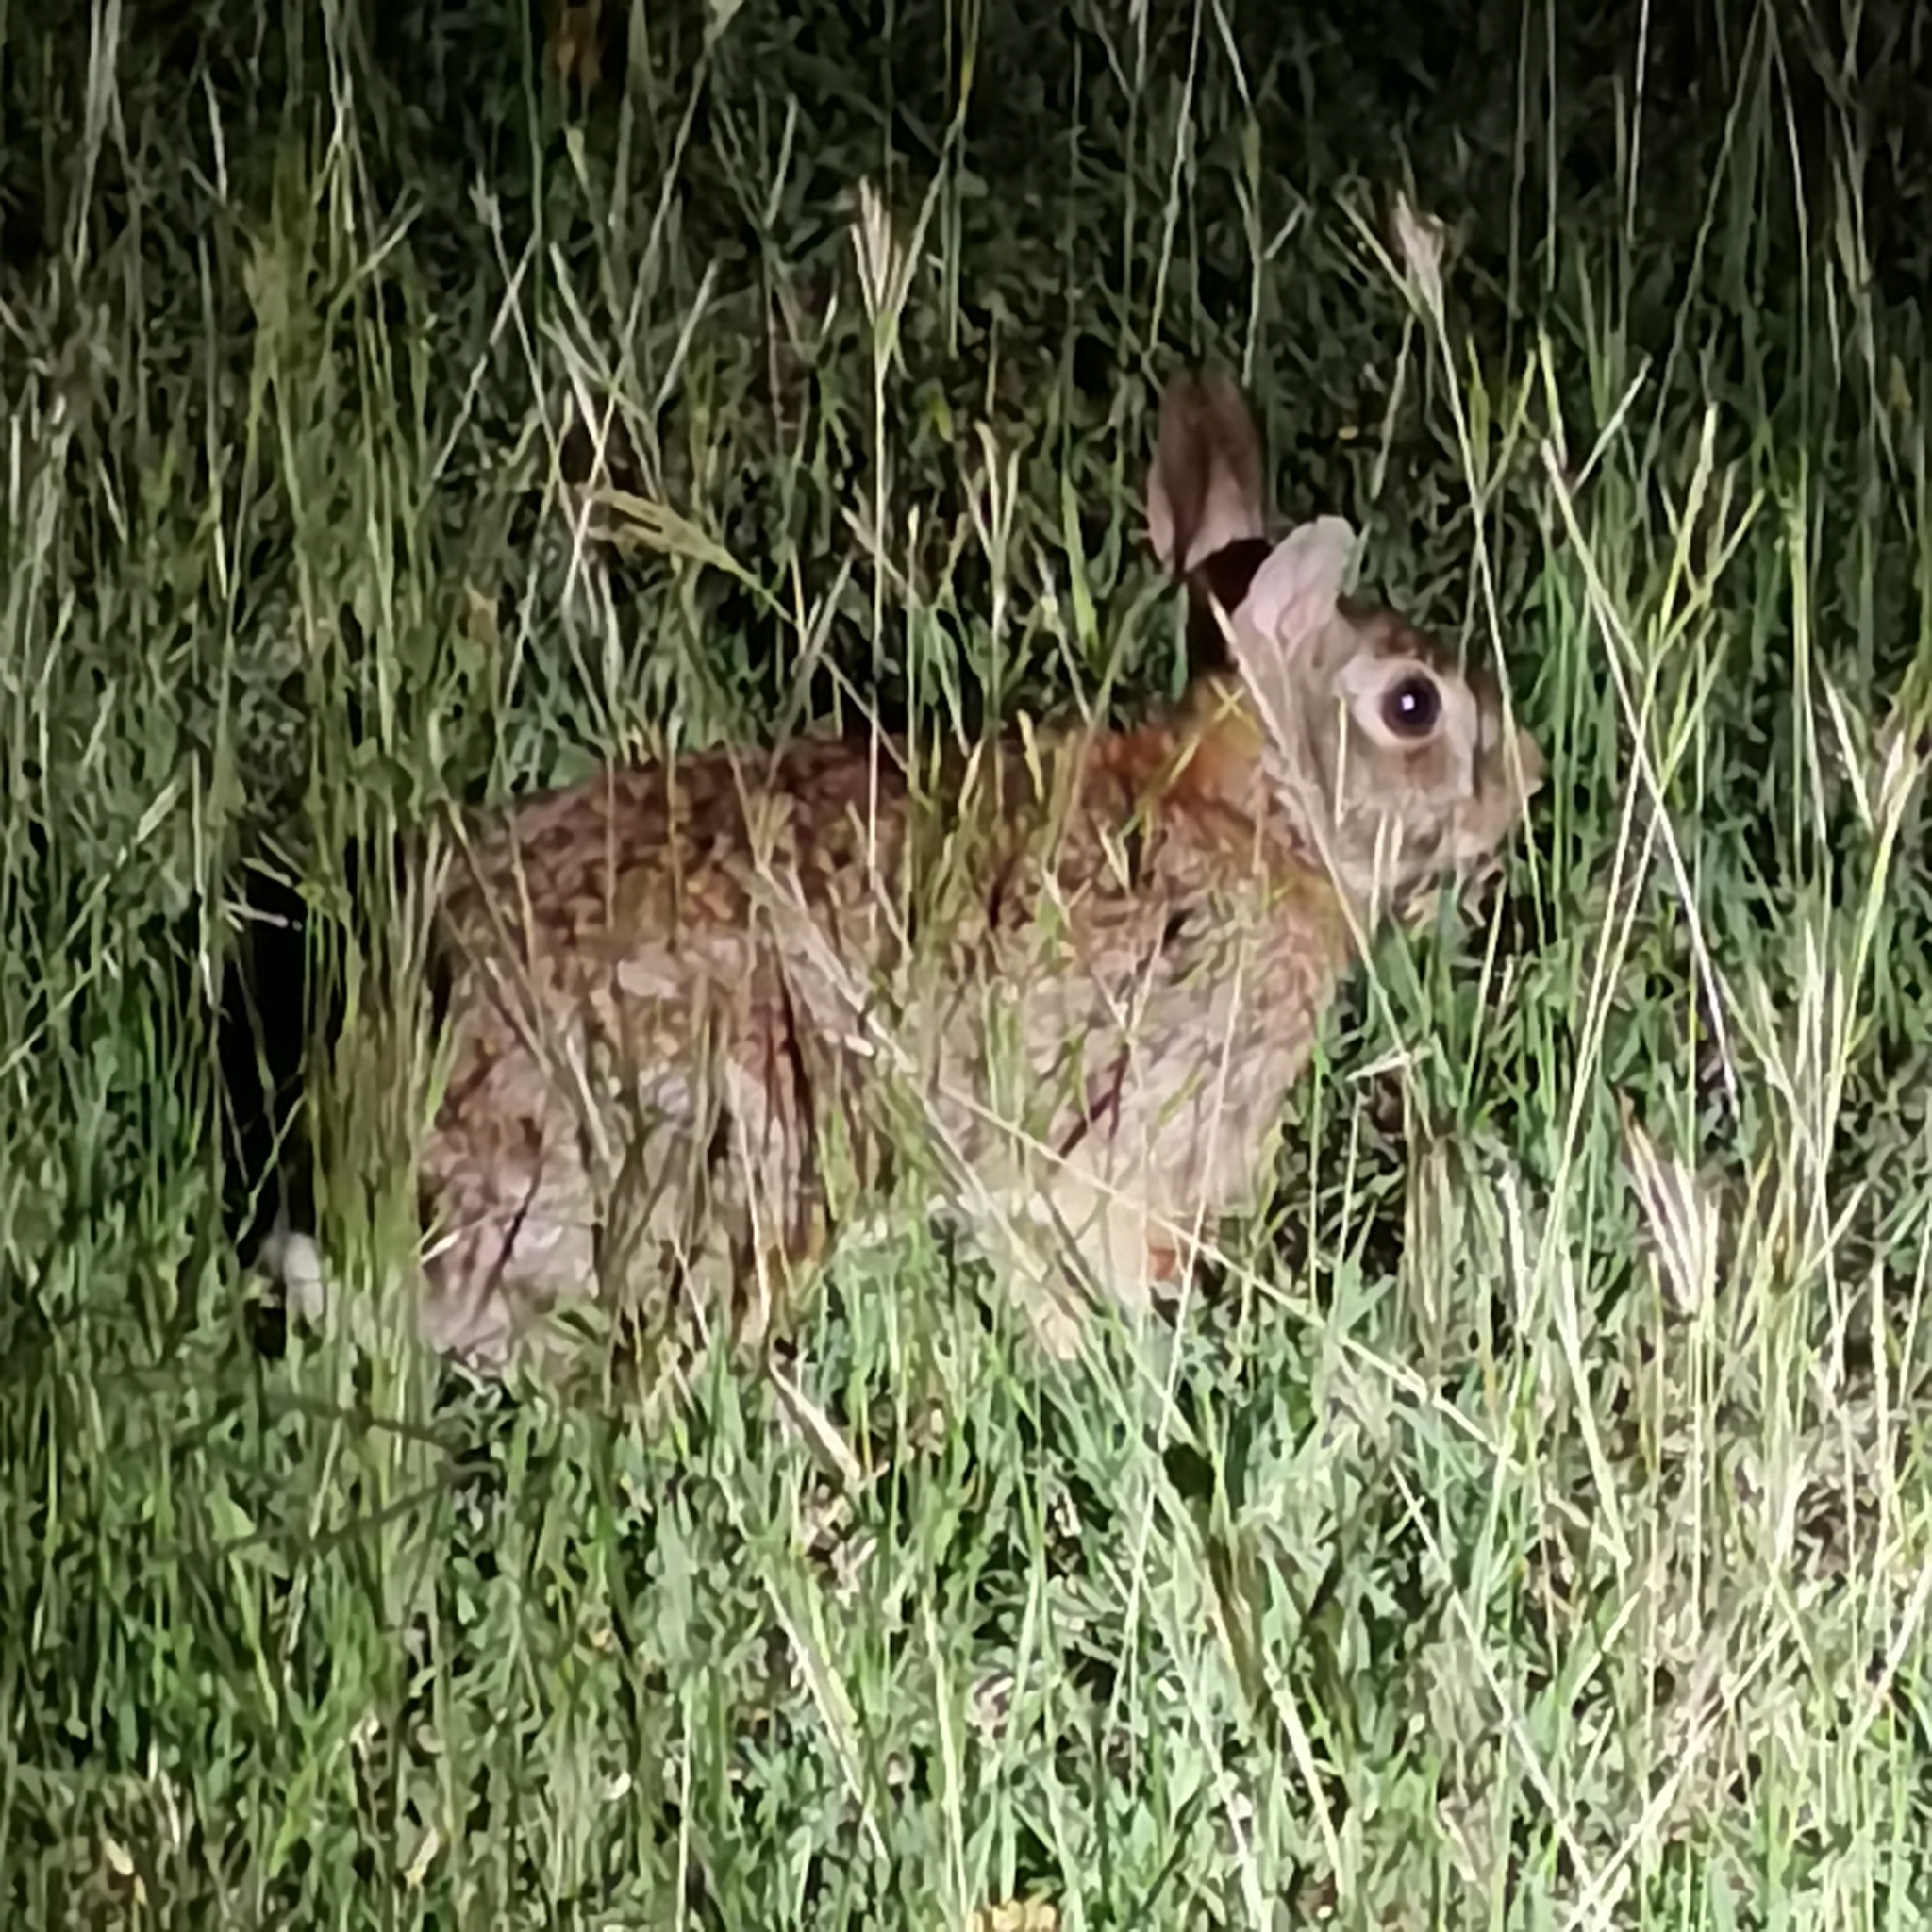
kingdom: Animalia
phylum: Chordata
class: Mammalia
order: Lagomorpha
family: Leporidae
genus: Sylvilagus
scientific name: Sylvilagus floridanus
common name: Eastern cottontail
